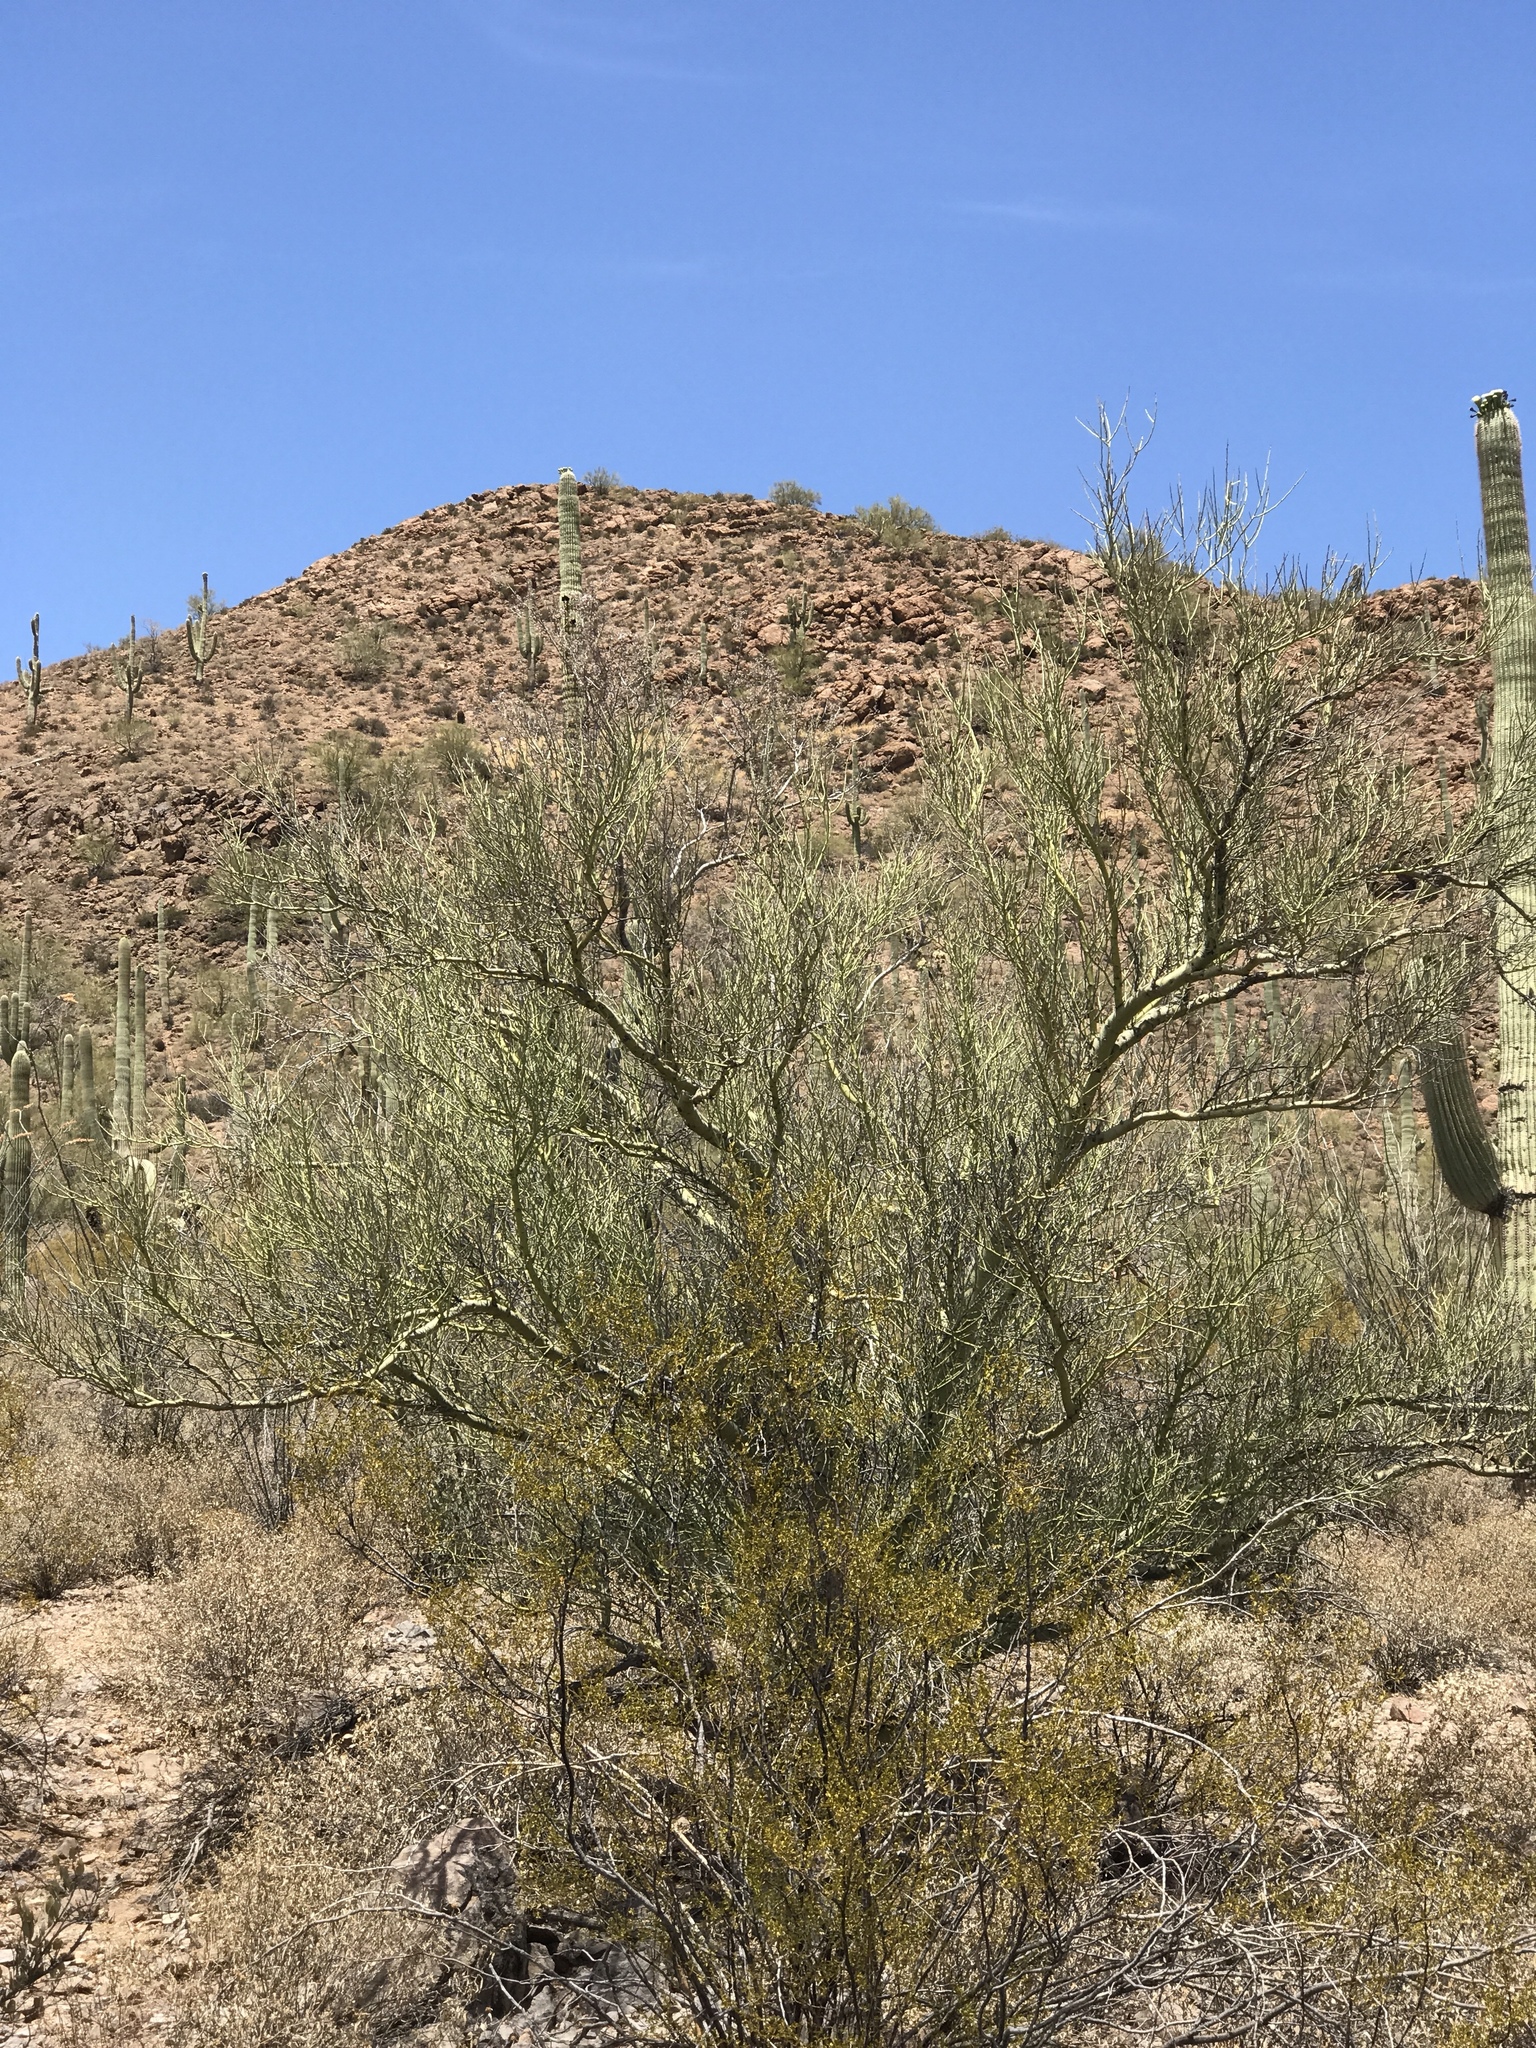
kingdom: Plantae
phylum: Tracheophyta
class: Magnoliopsida
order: Fabales
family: Fabaceae
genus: Parkinsonia
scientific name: Parkinsonia microphylla
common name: Yellow paloverde
